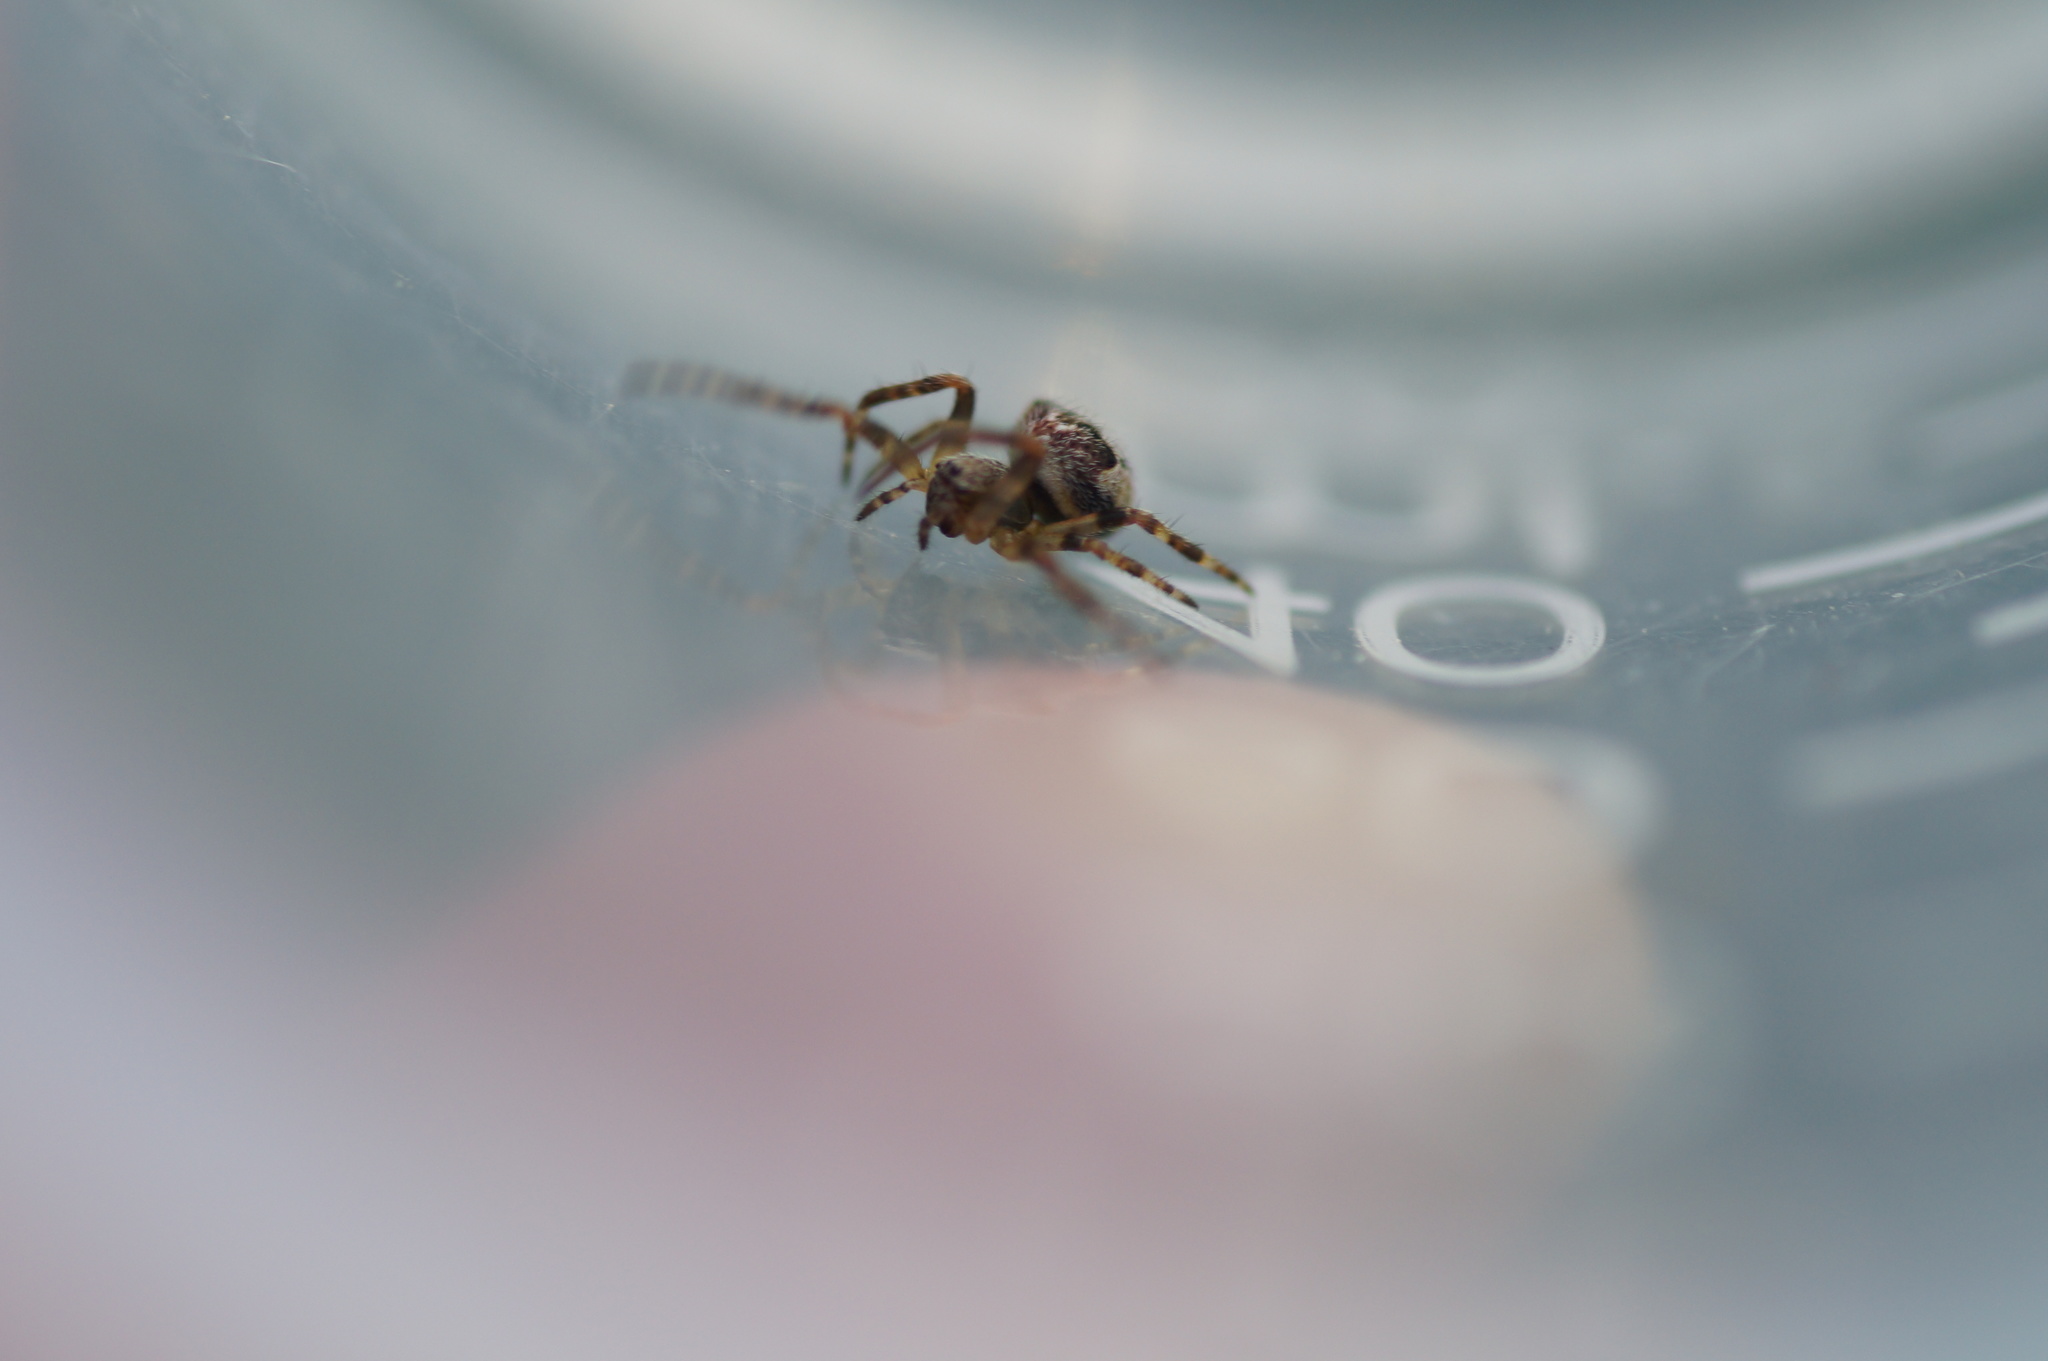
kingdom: Animalia
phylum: Arthropoda
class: Arachnida
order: Araneae
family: Araneidae
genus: Araneus
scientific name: Araneus angulatus
